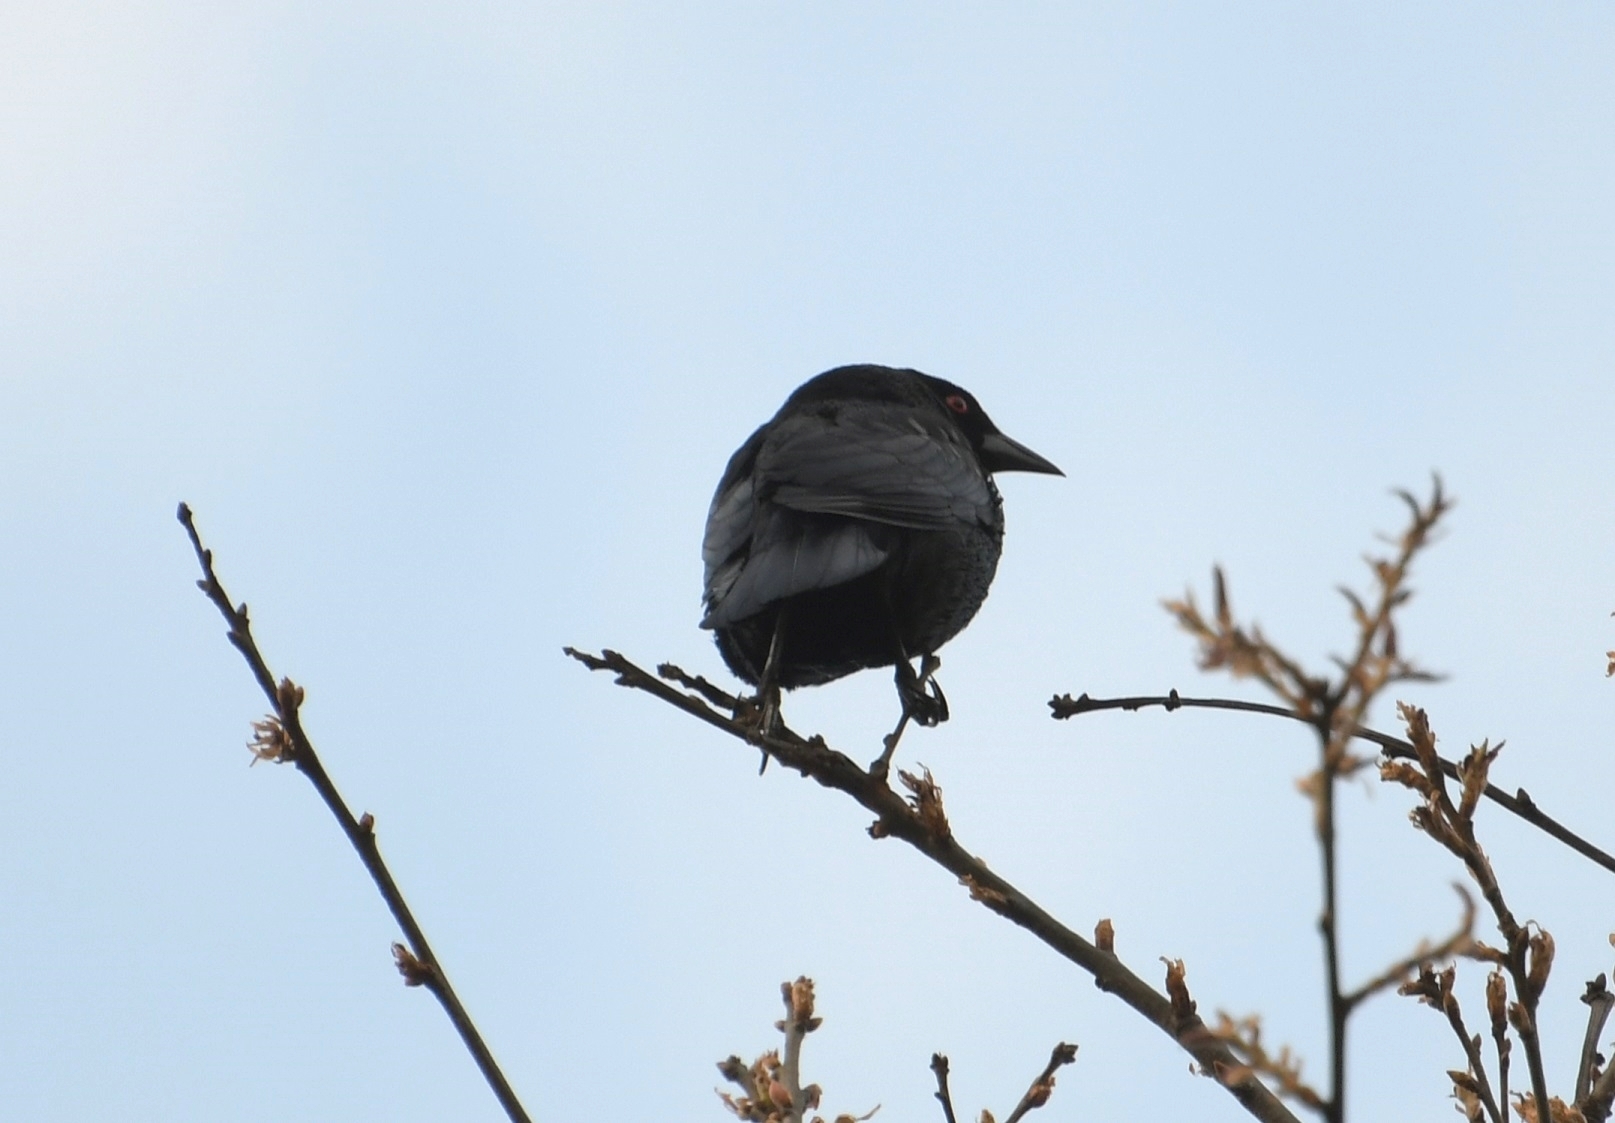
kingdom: Animalia
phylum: Chordata
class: Aves
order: Passeriformes
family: Icteridae
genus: Molothrus
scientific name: Molothrus aeneus
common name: Bronzed cowbird
